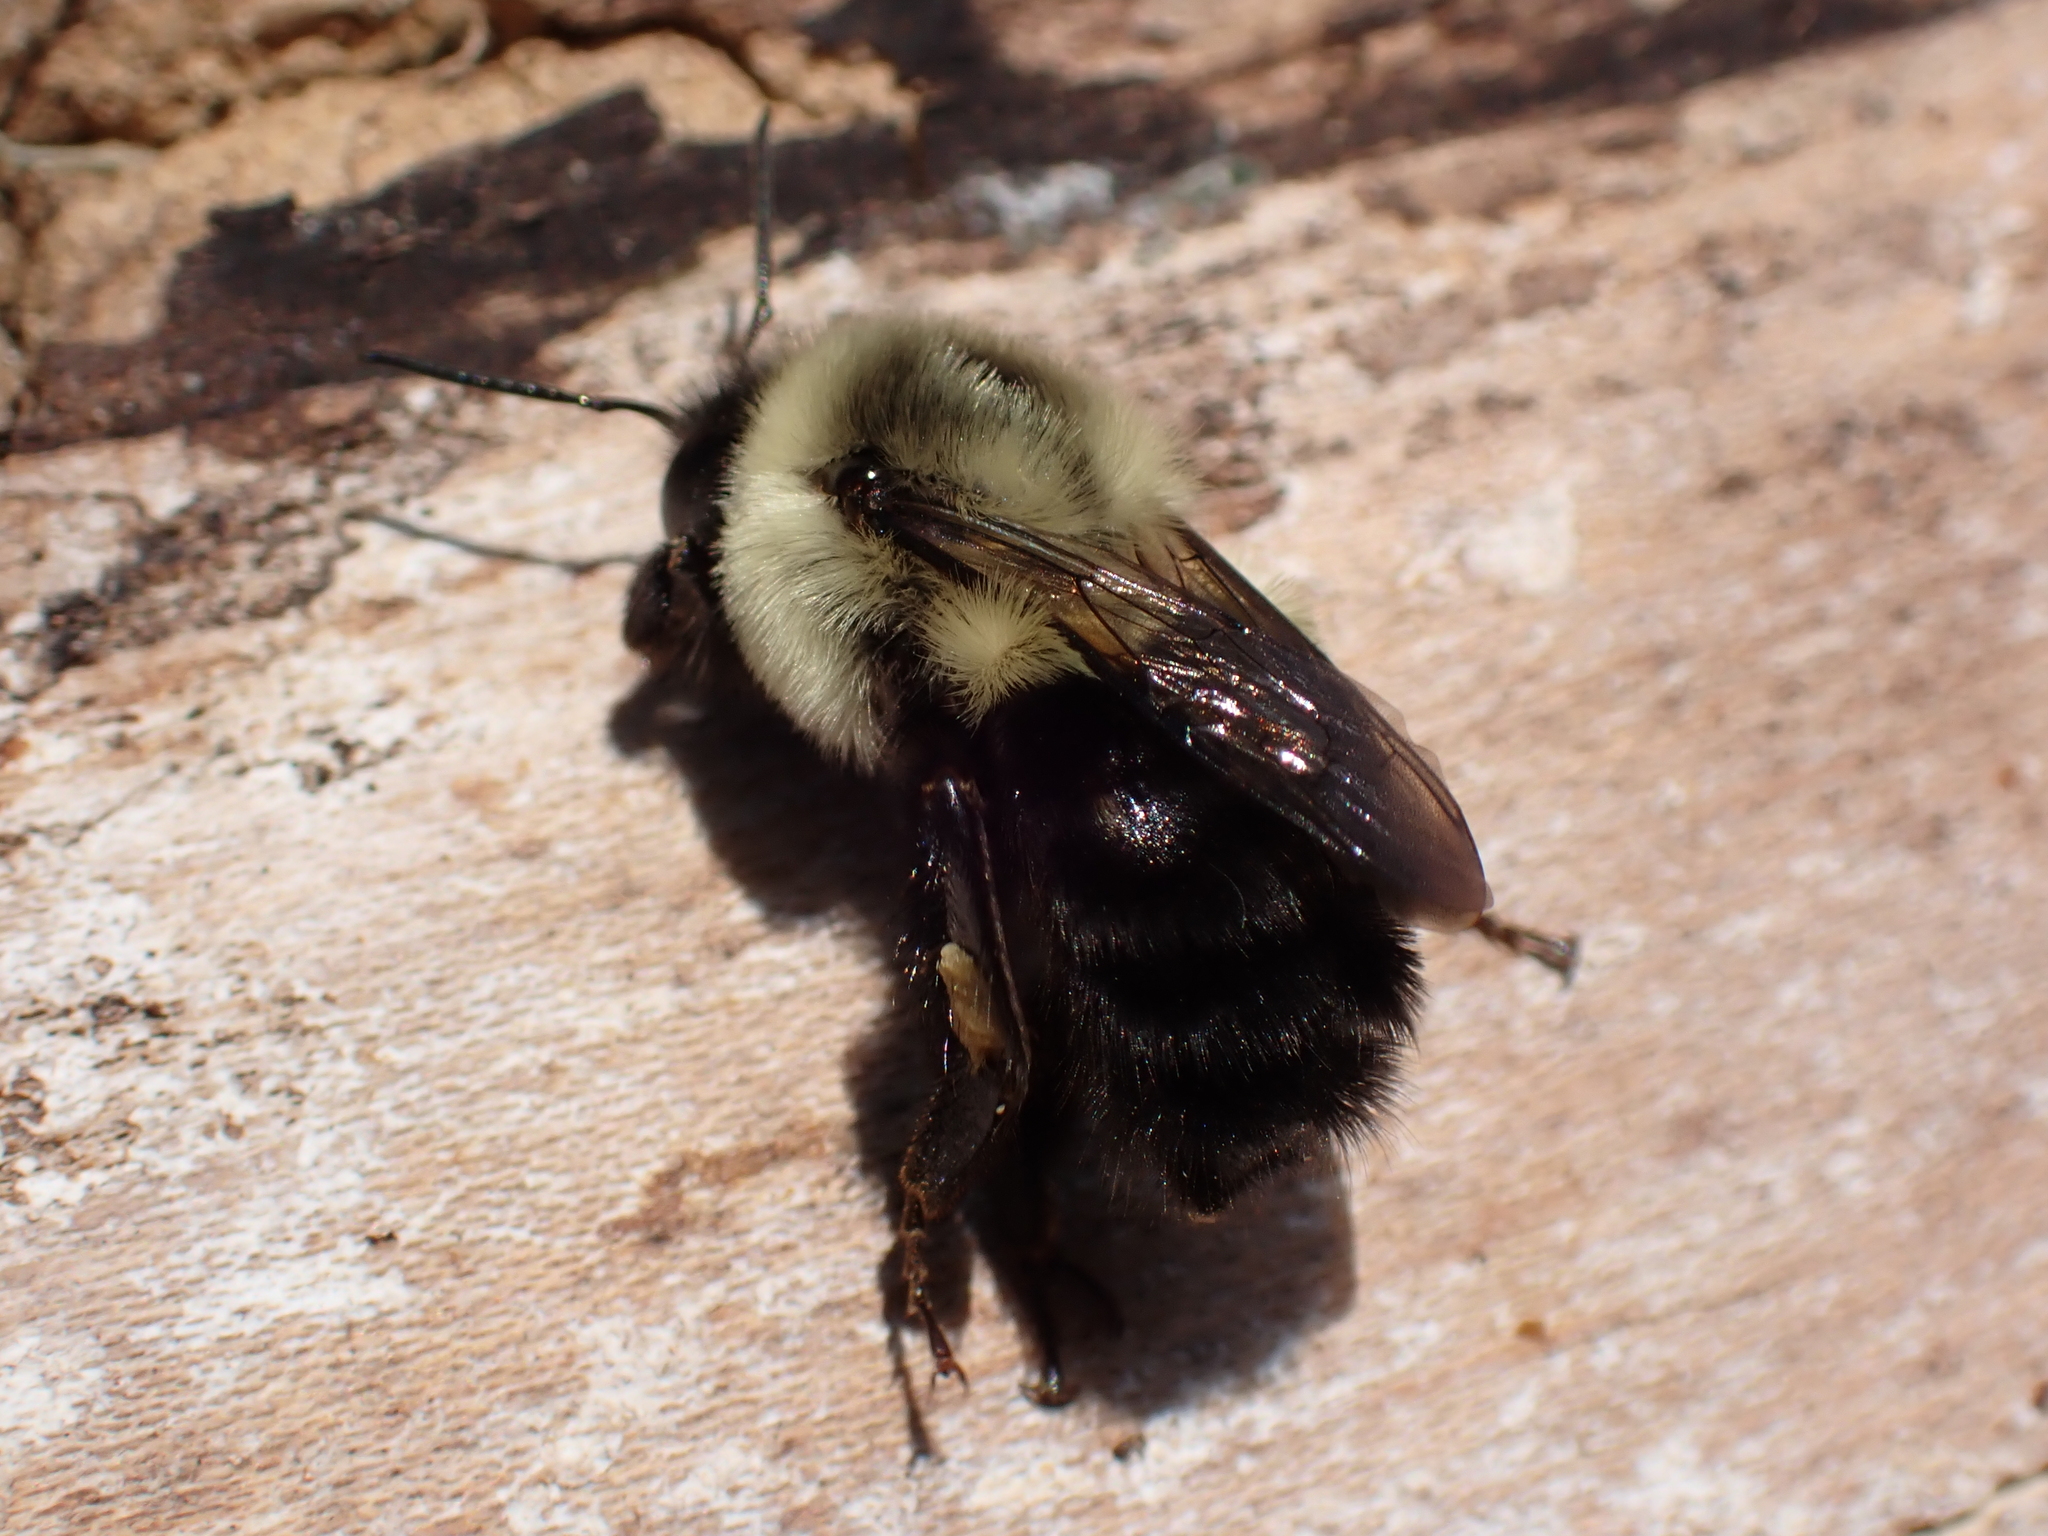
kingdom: Animalia
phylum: Arthropoda
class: Insecta
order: Hymenoptera
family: Apidae
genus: Bombus
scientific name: Bombus impatiens
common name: Common eastern bumble bee
